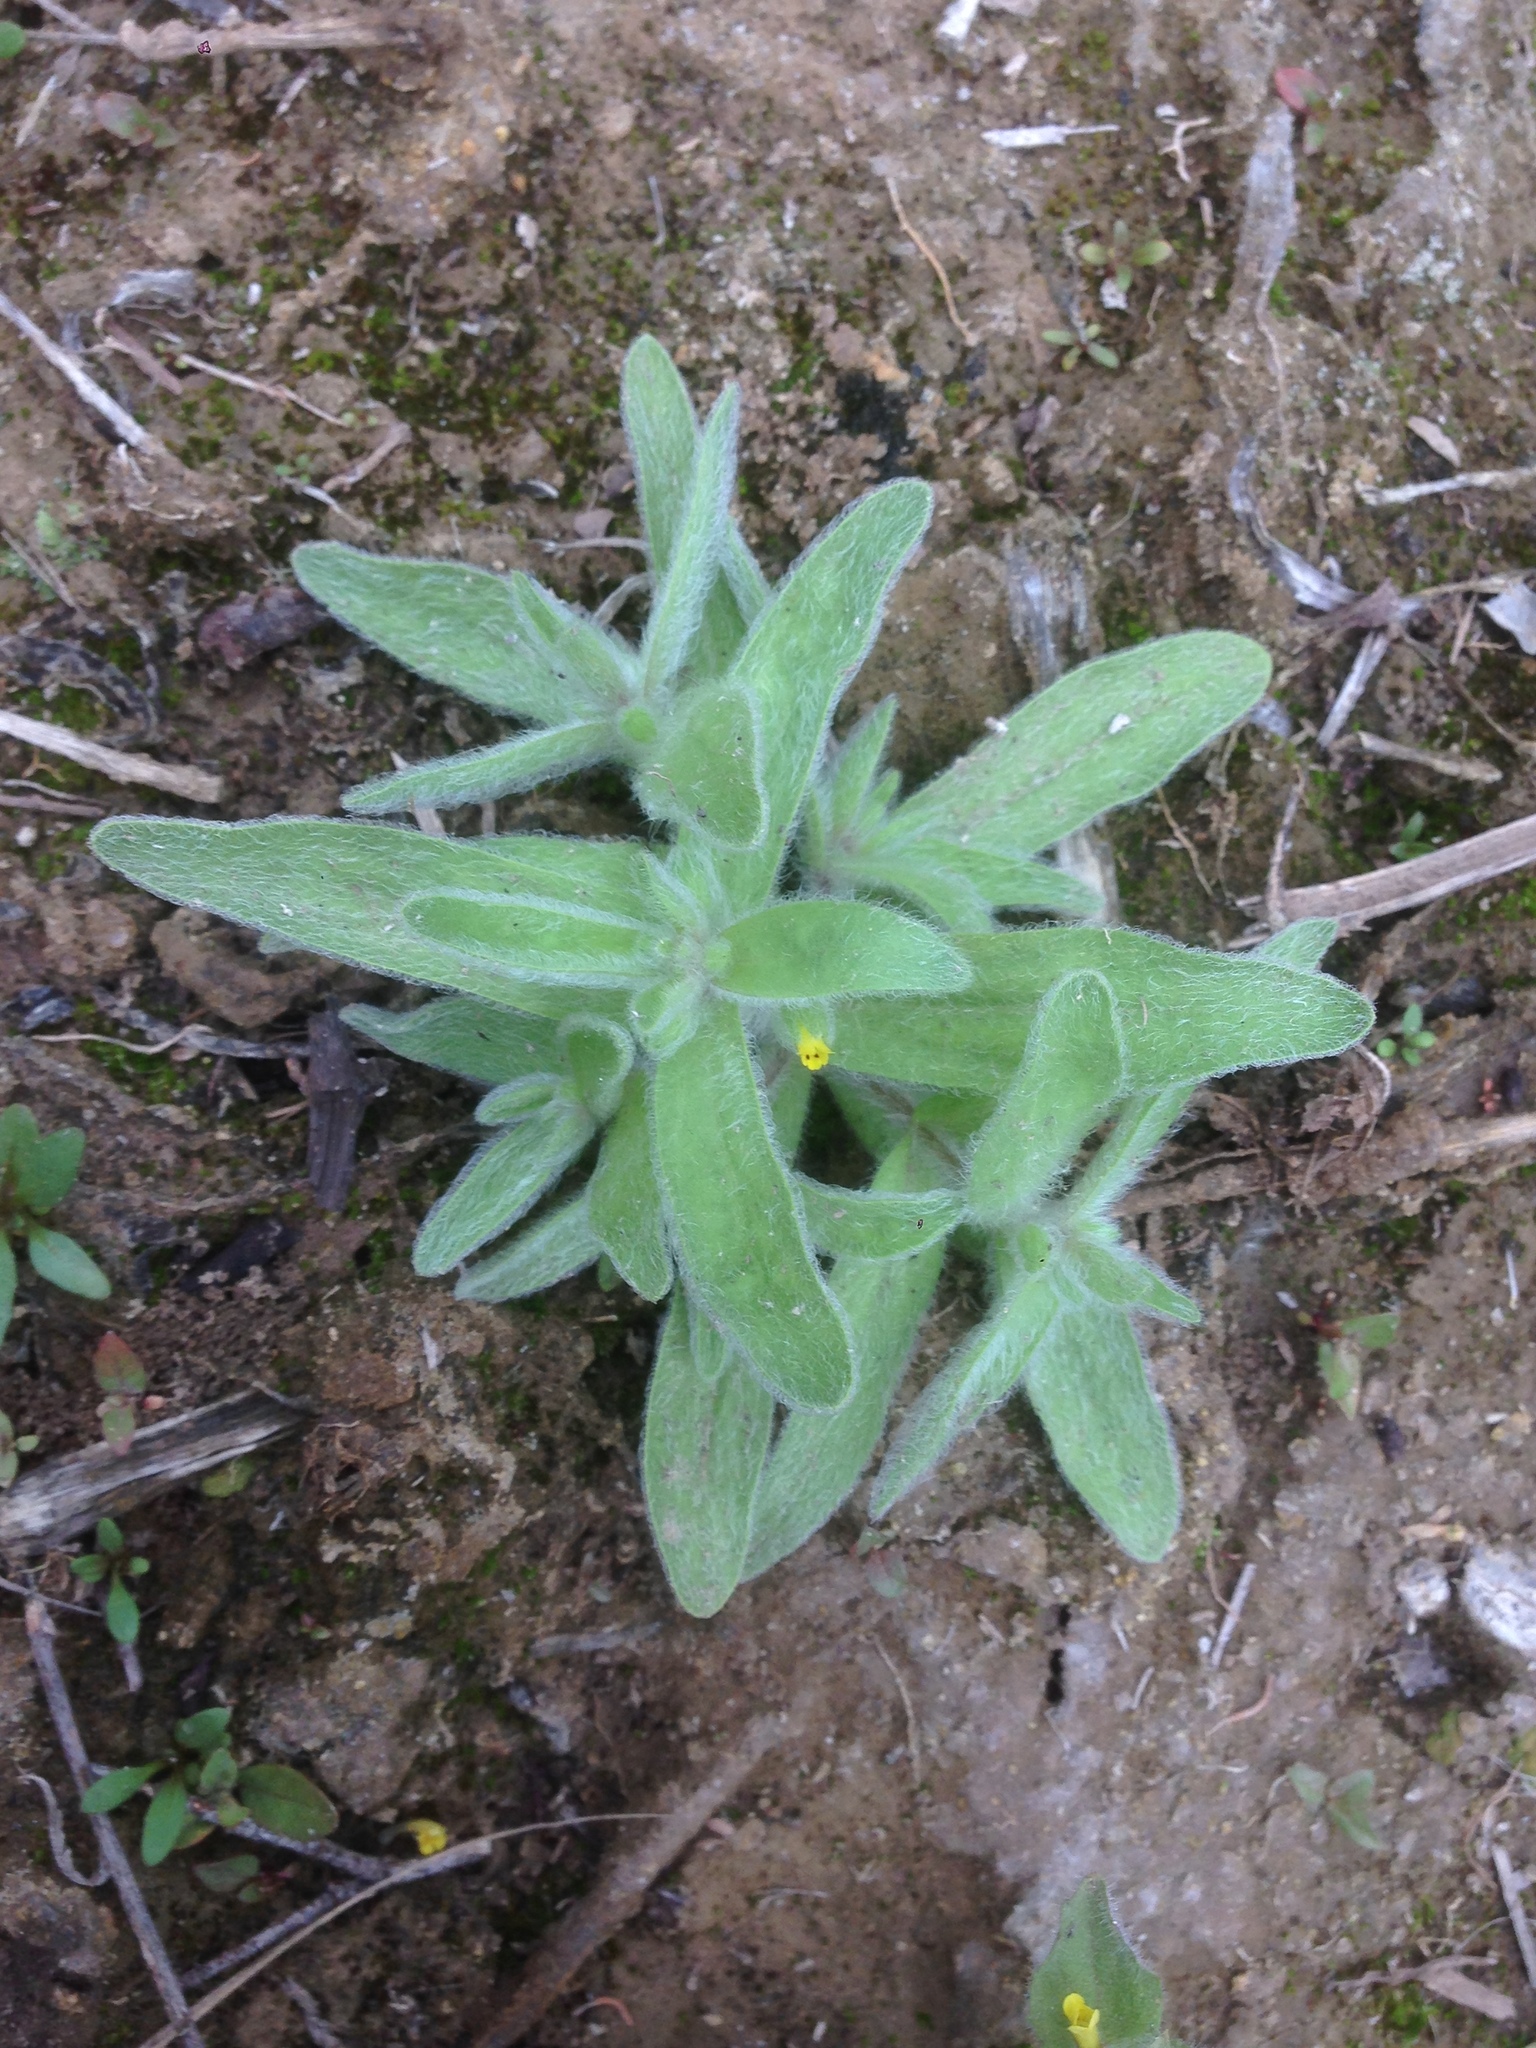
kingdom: Plantae
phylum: Tracheophyta
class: Magnoliopsida
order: Lamiales
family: Phrymaceae
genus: Mimetanthe
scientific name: Mimetanthe pilosa
